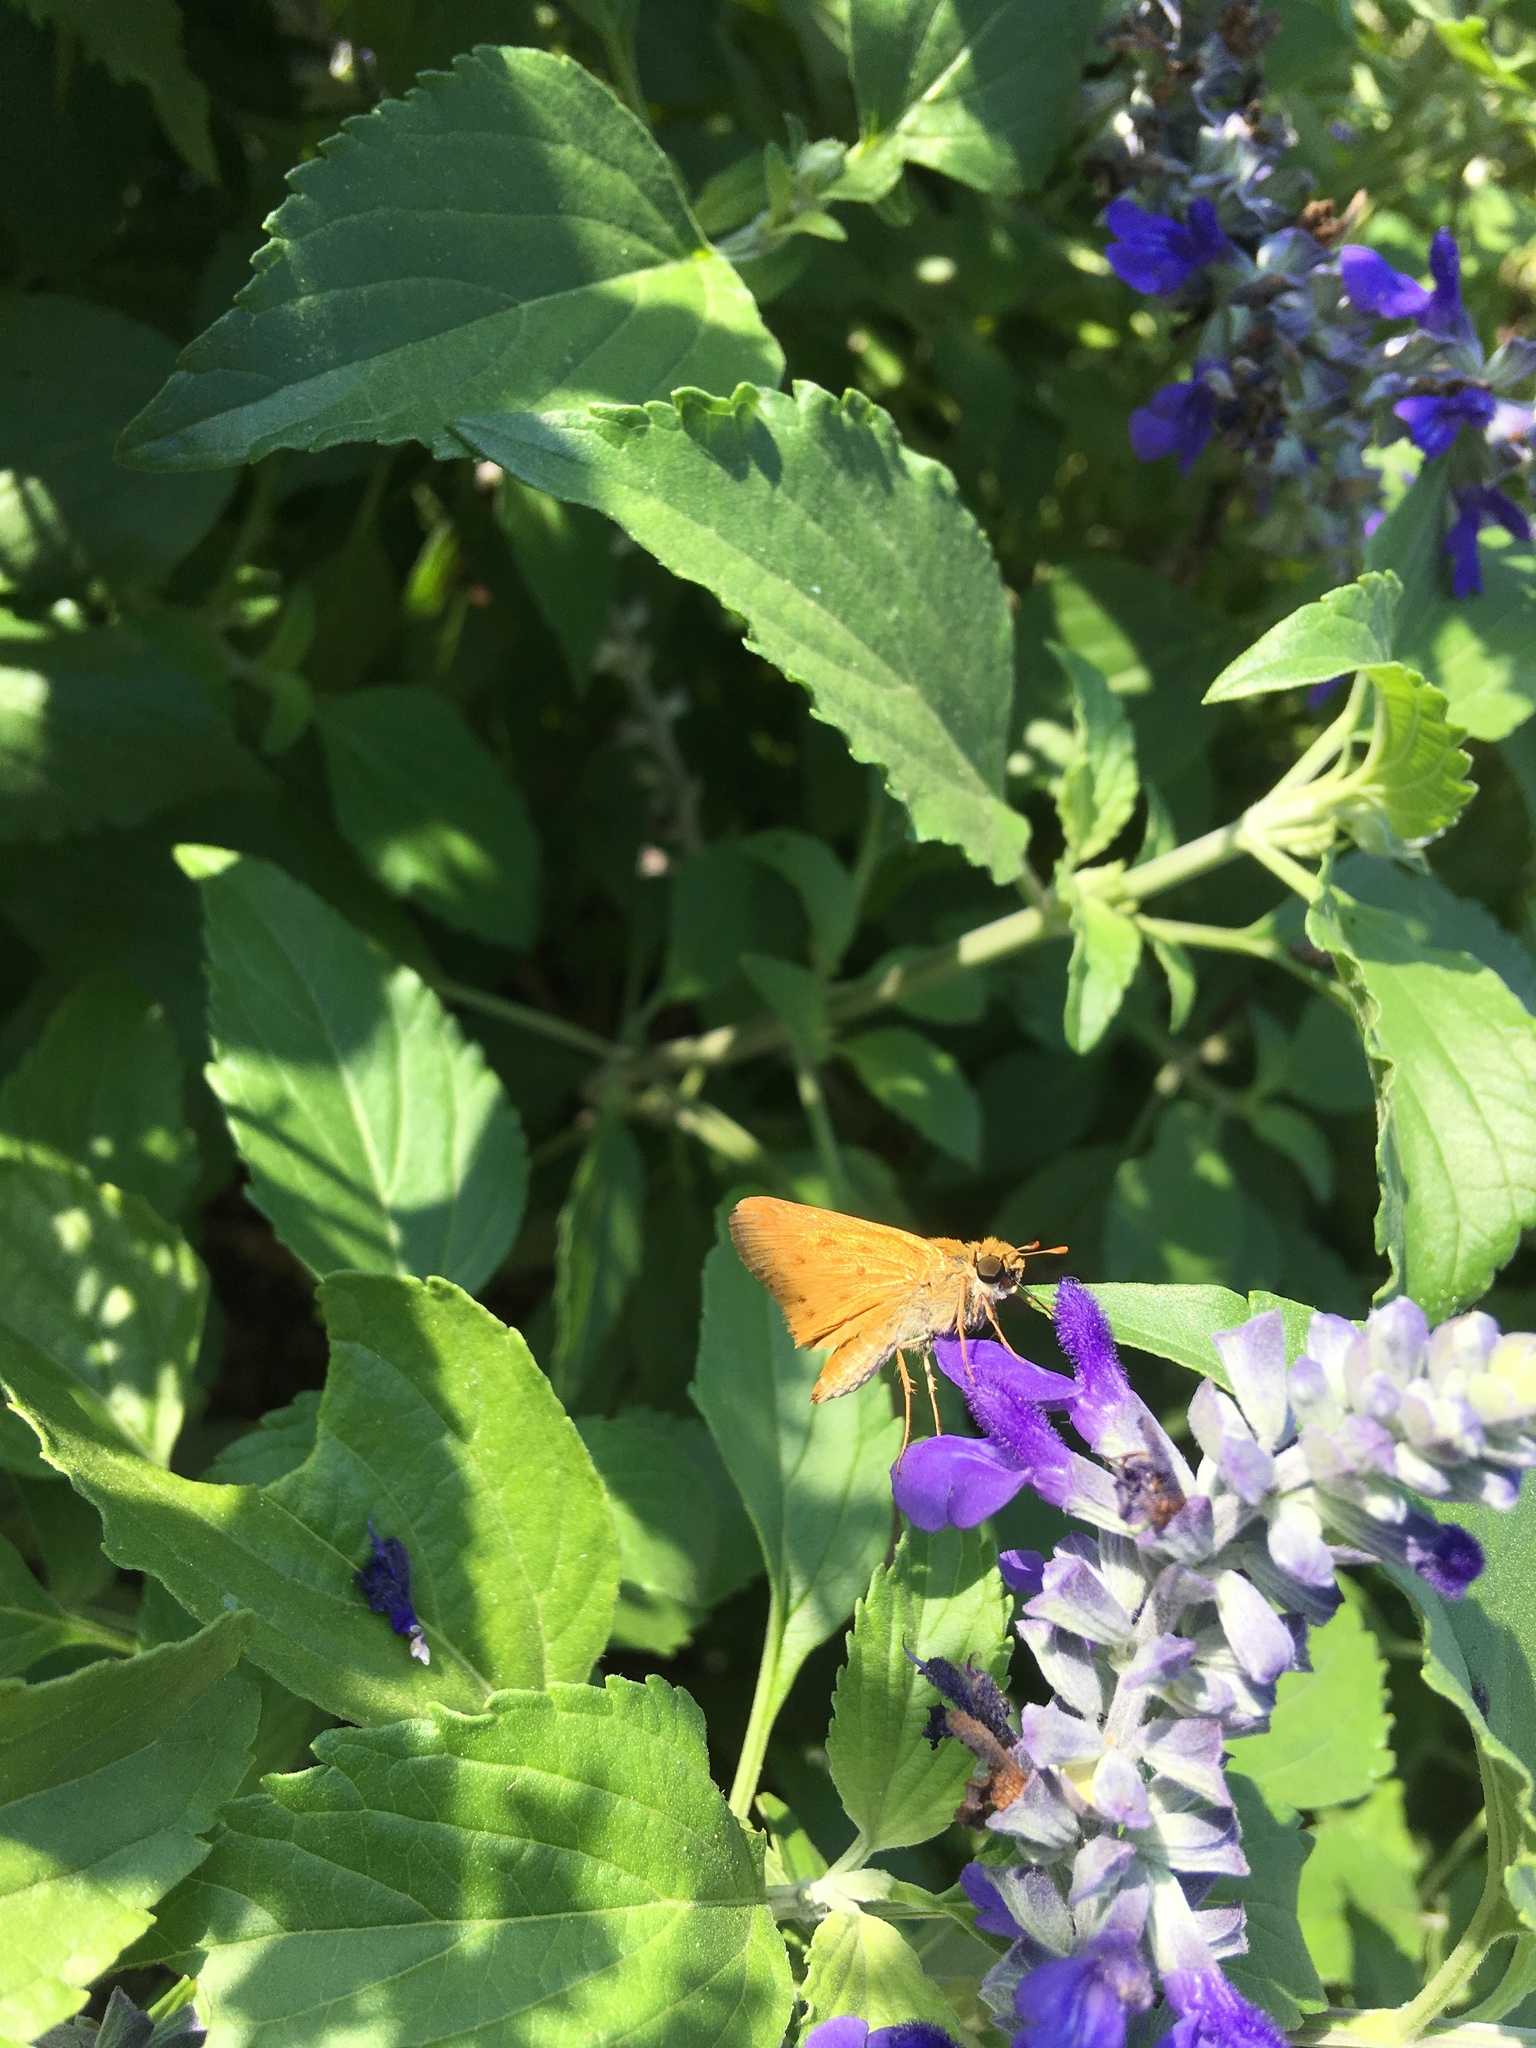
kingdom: Animalia
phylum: Arthropoda
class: Insecta
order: Lepidoptera
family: Hesperiidae
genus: Hylephila
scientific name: Hylephila phyleus
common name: Fiery skipper
